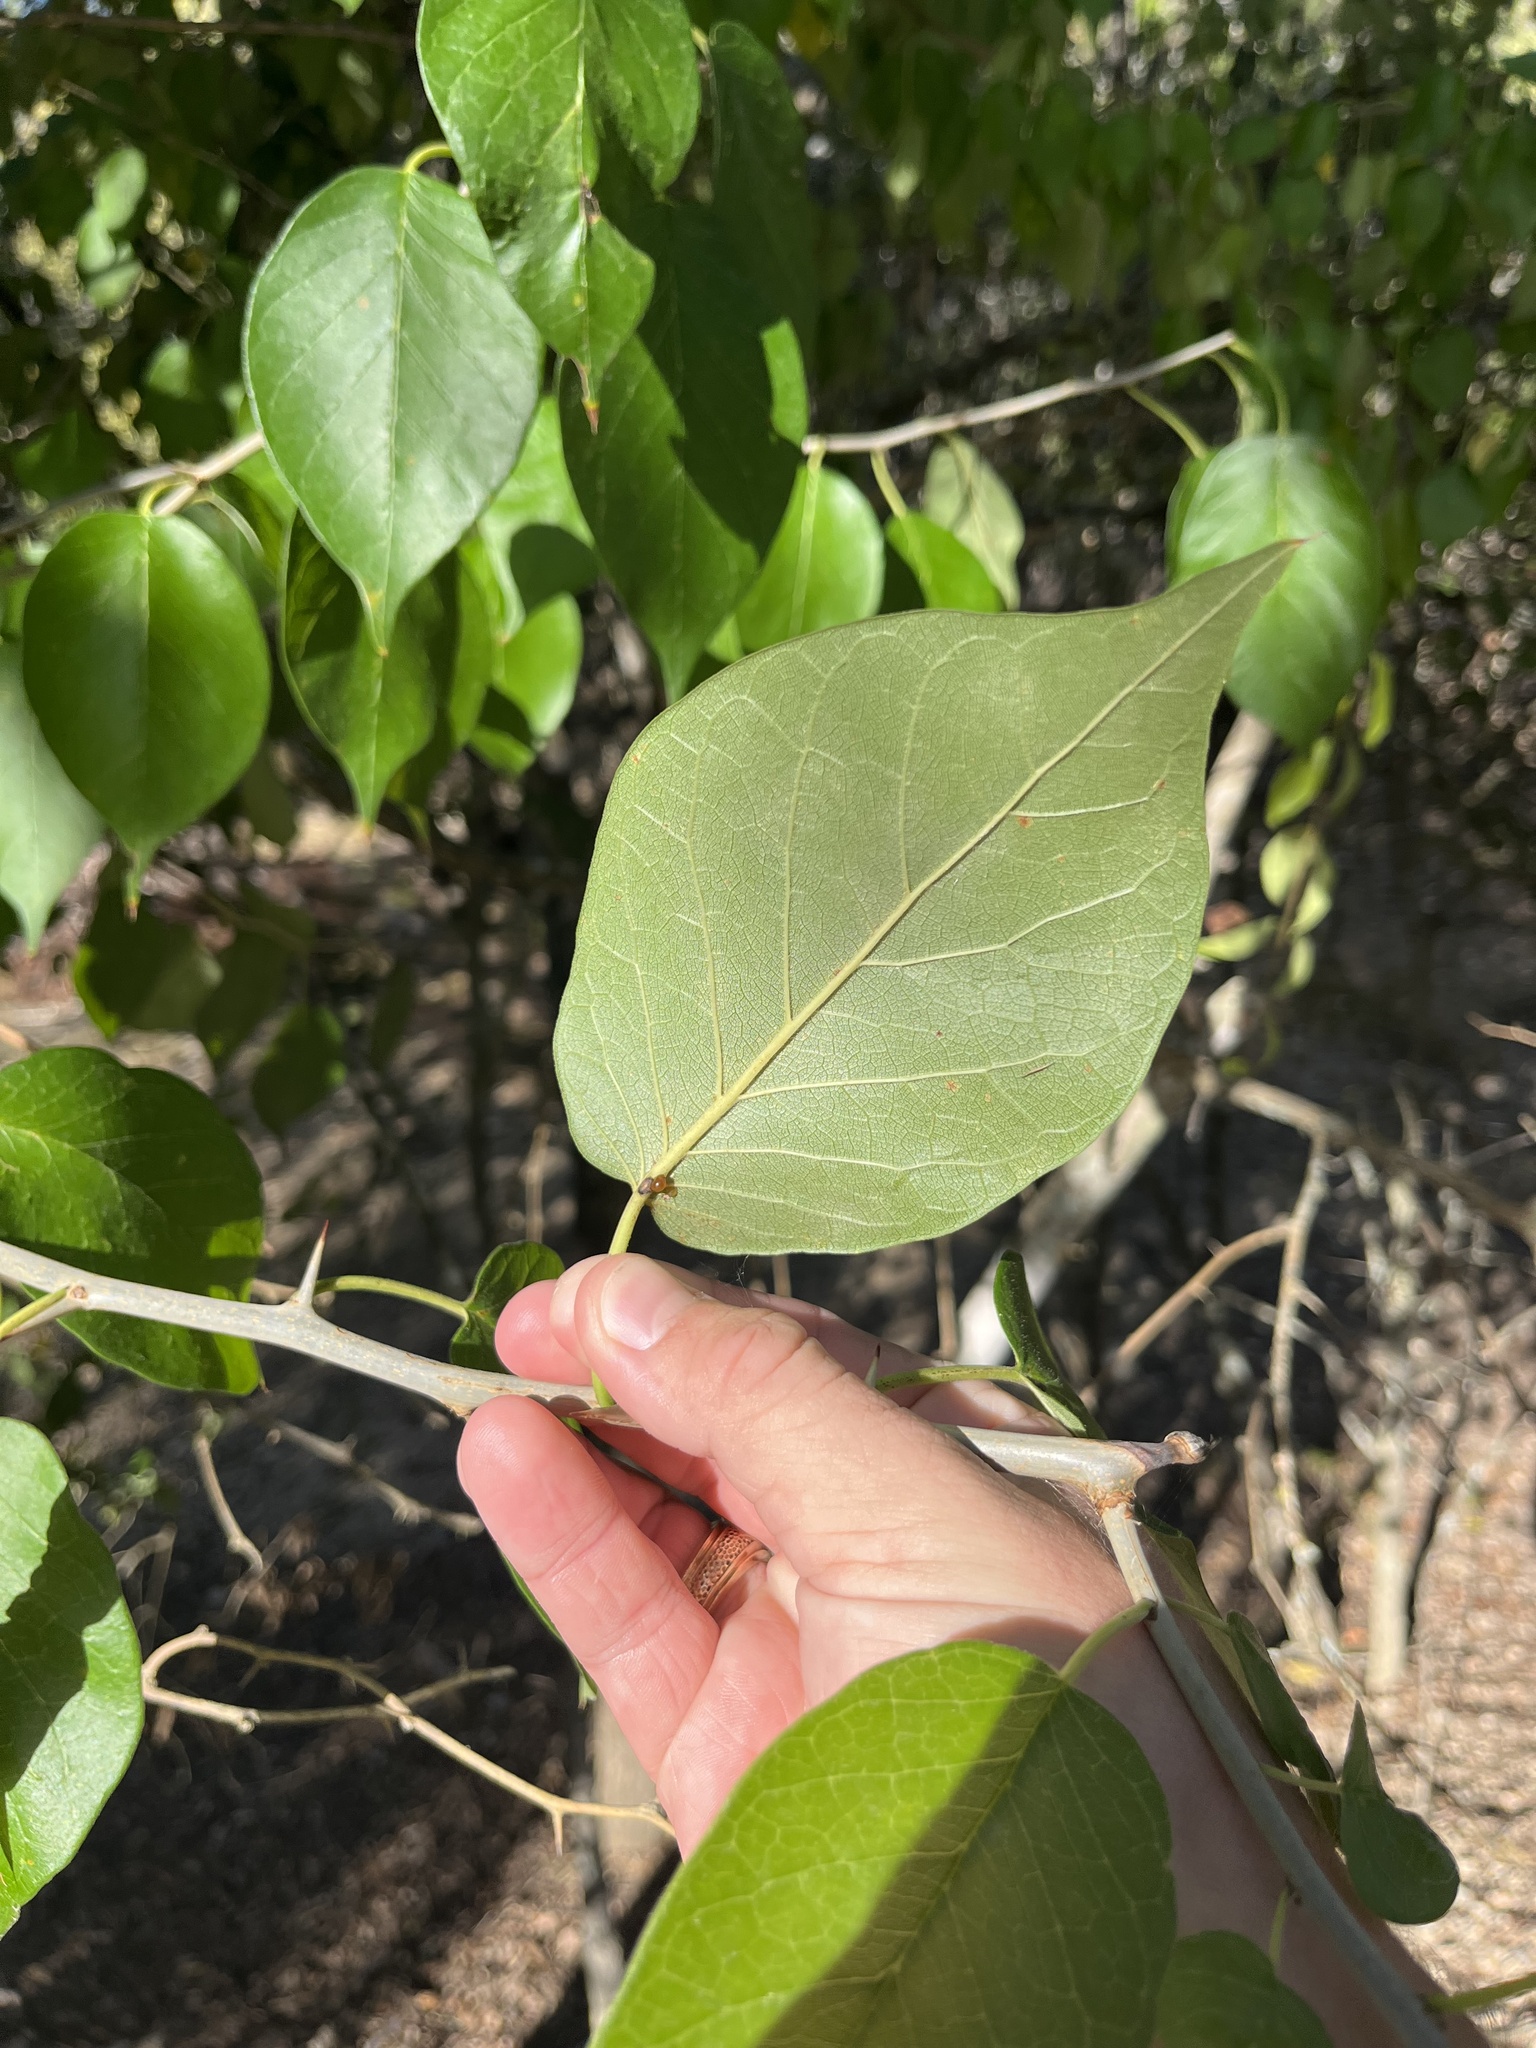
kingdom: Plantae
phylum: Tracheophyta
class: Magnoliopsida
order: Rosales
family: Moraceae
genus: Maclura
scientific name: Maclura pomifera
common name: Osage-orange
